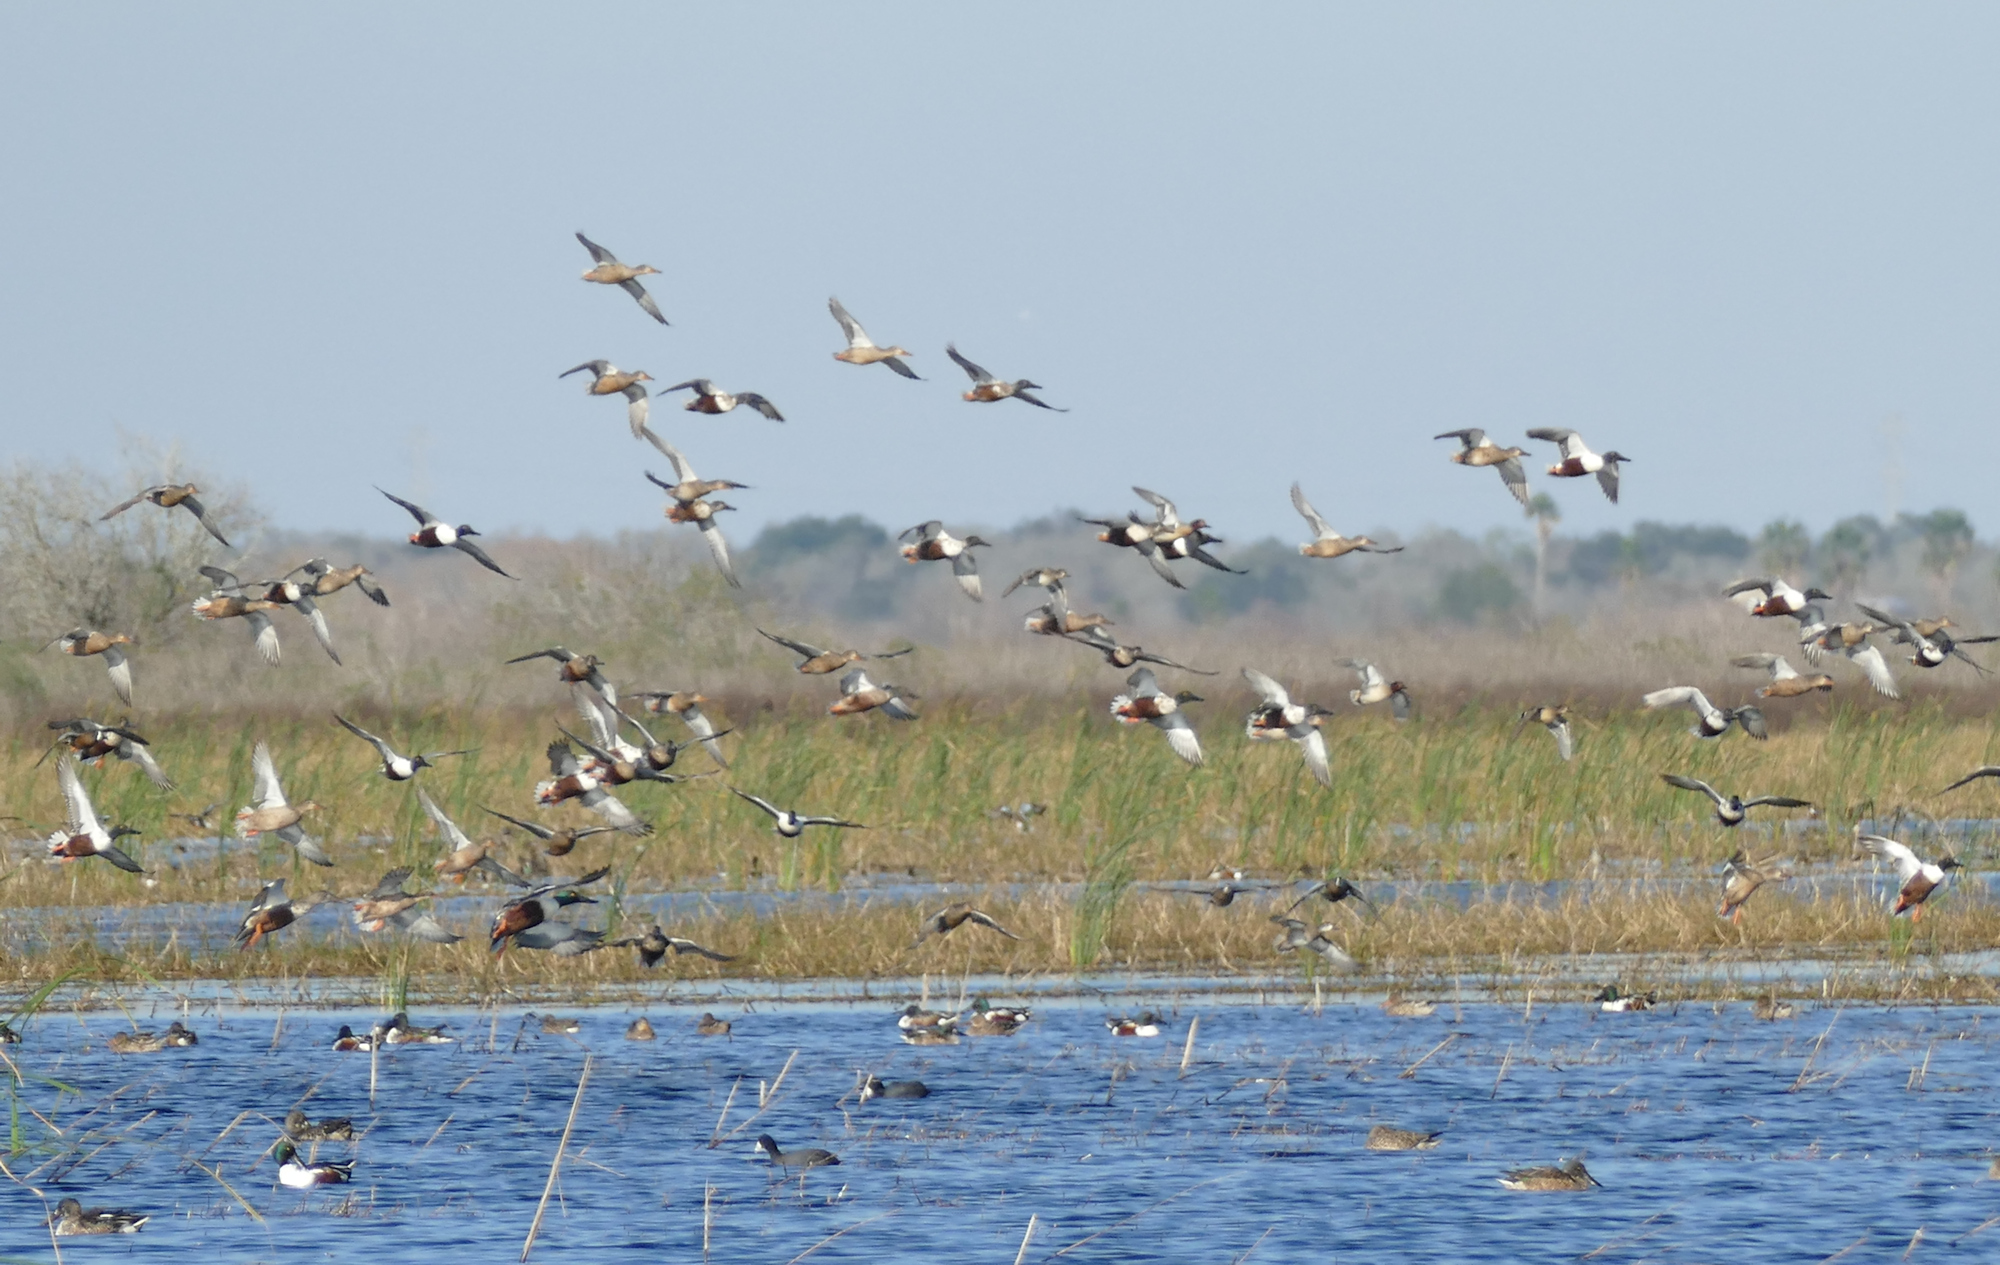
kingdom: Animalia
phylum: Chordata
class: Aves
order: Anseriformes
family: Anatidae
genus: Spatula
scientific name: Spatula clypeata
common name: Northern shoveler
